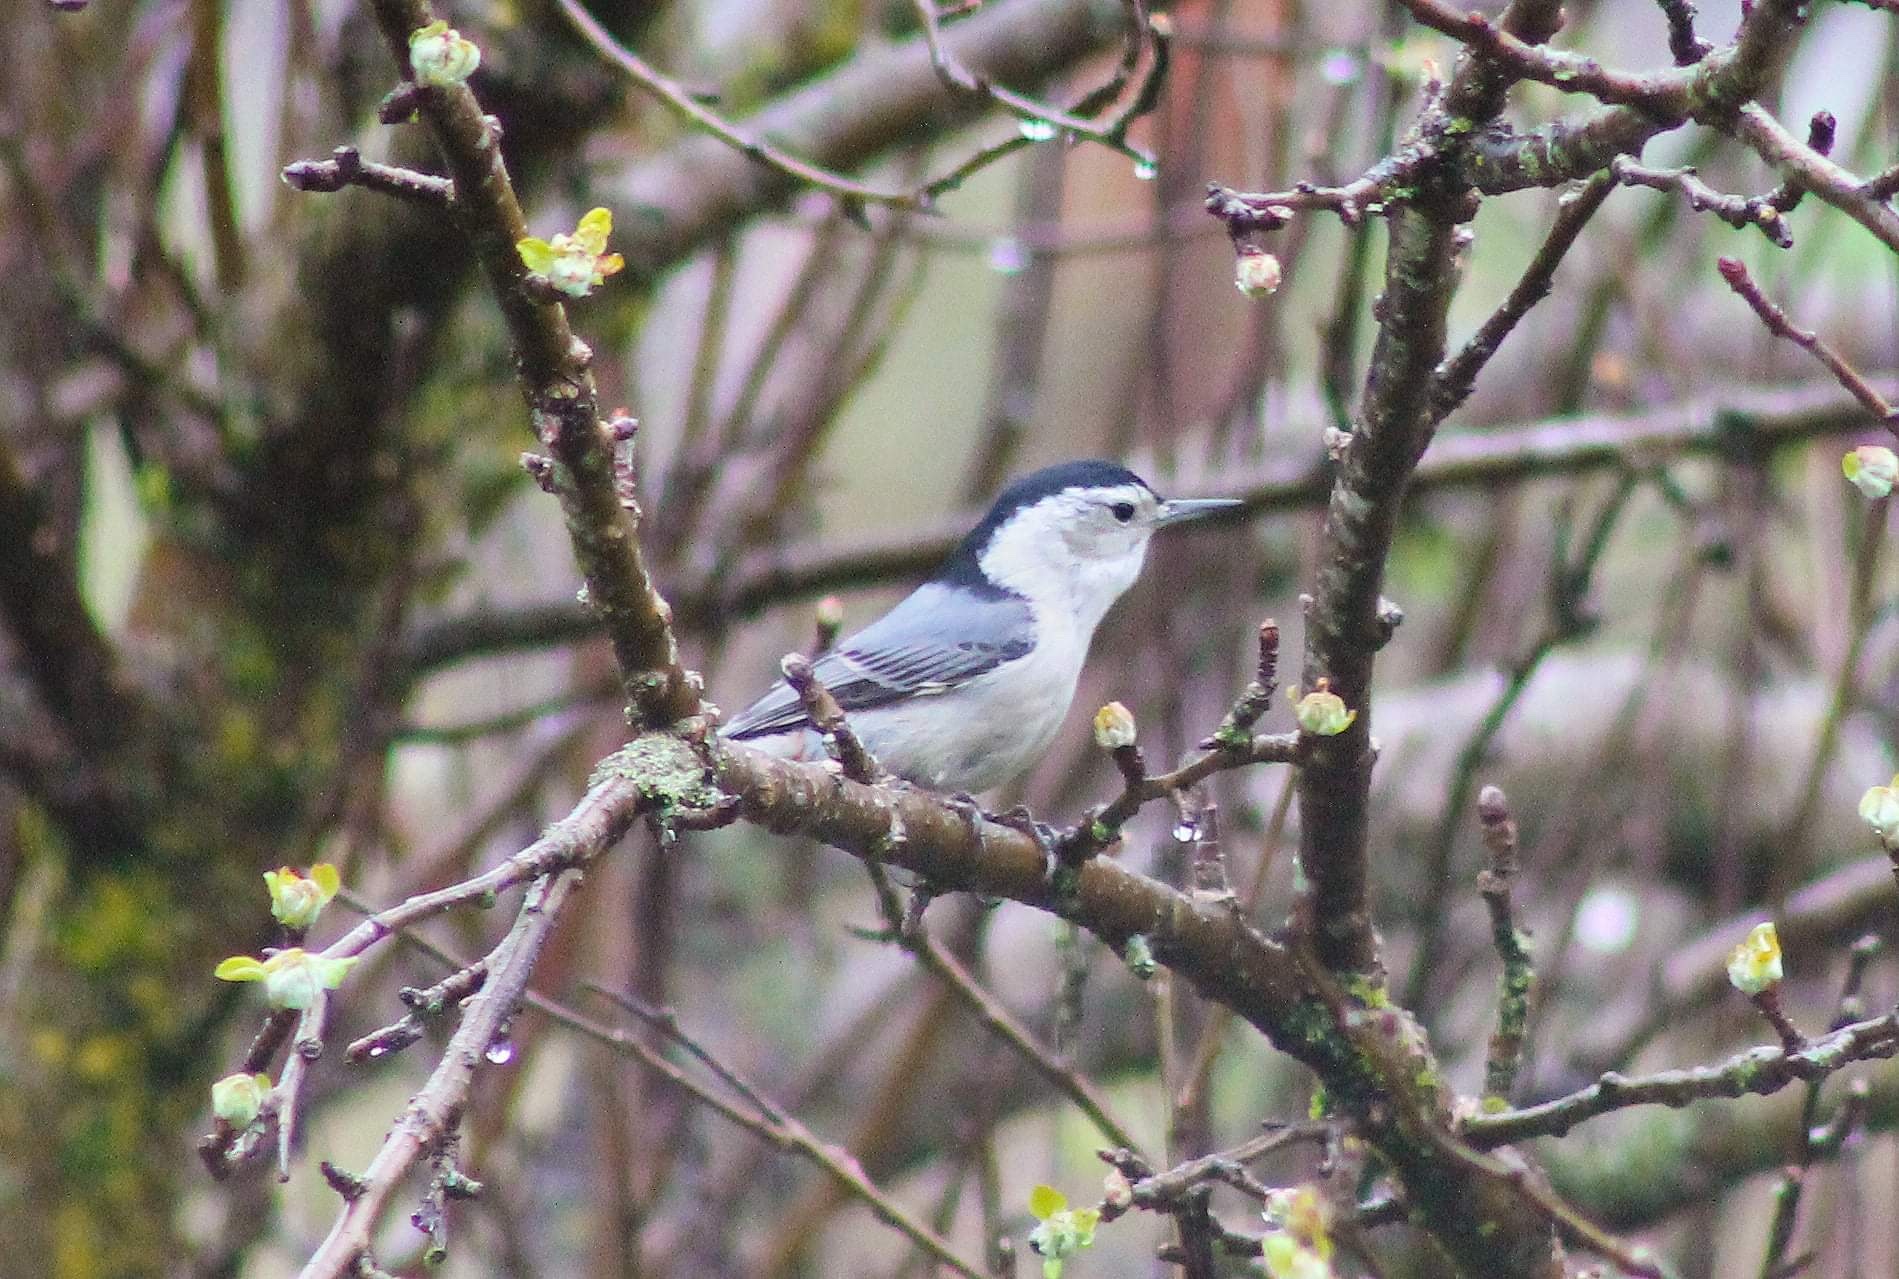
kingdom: Animalia
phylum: Chordata
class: Aves
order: Passeriformes
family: Sittidae
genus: Sitta
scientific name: Sitta carolinensis
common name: White-breasted nuthatch
